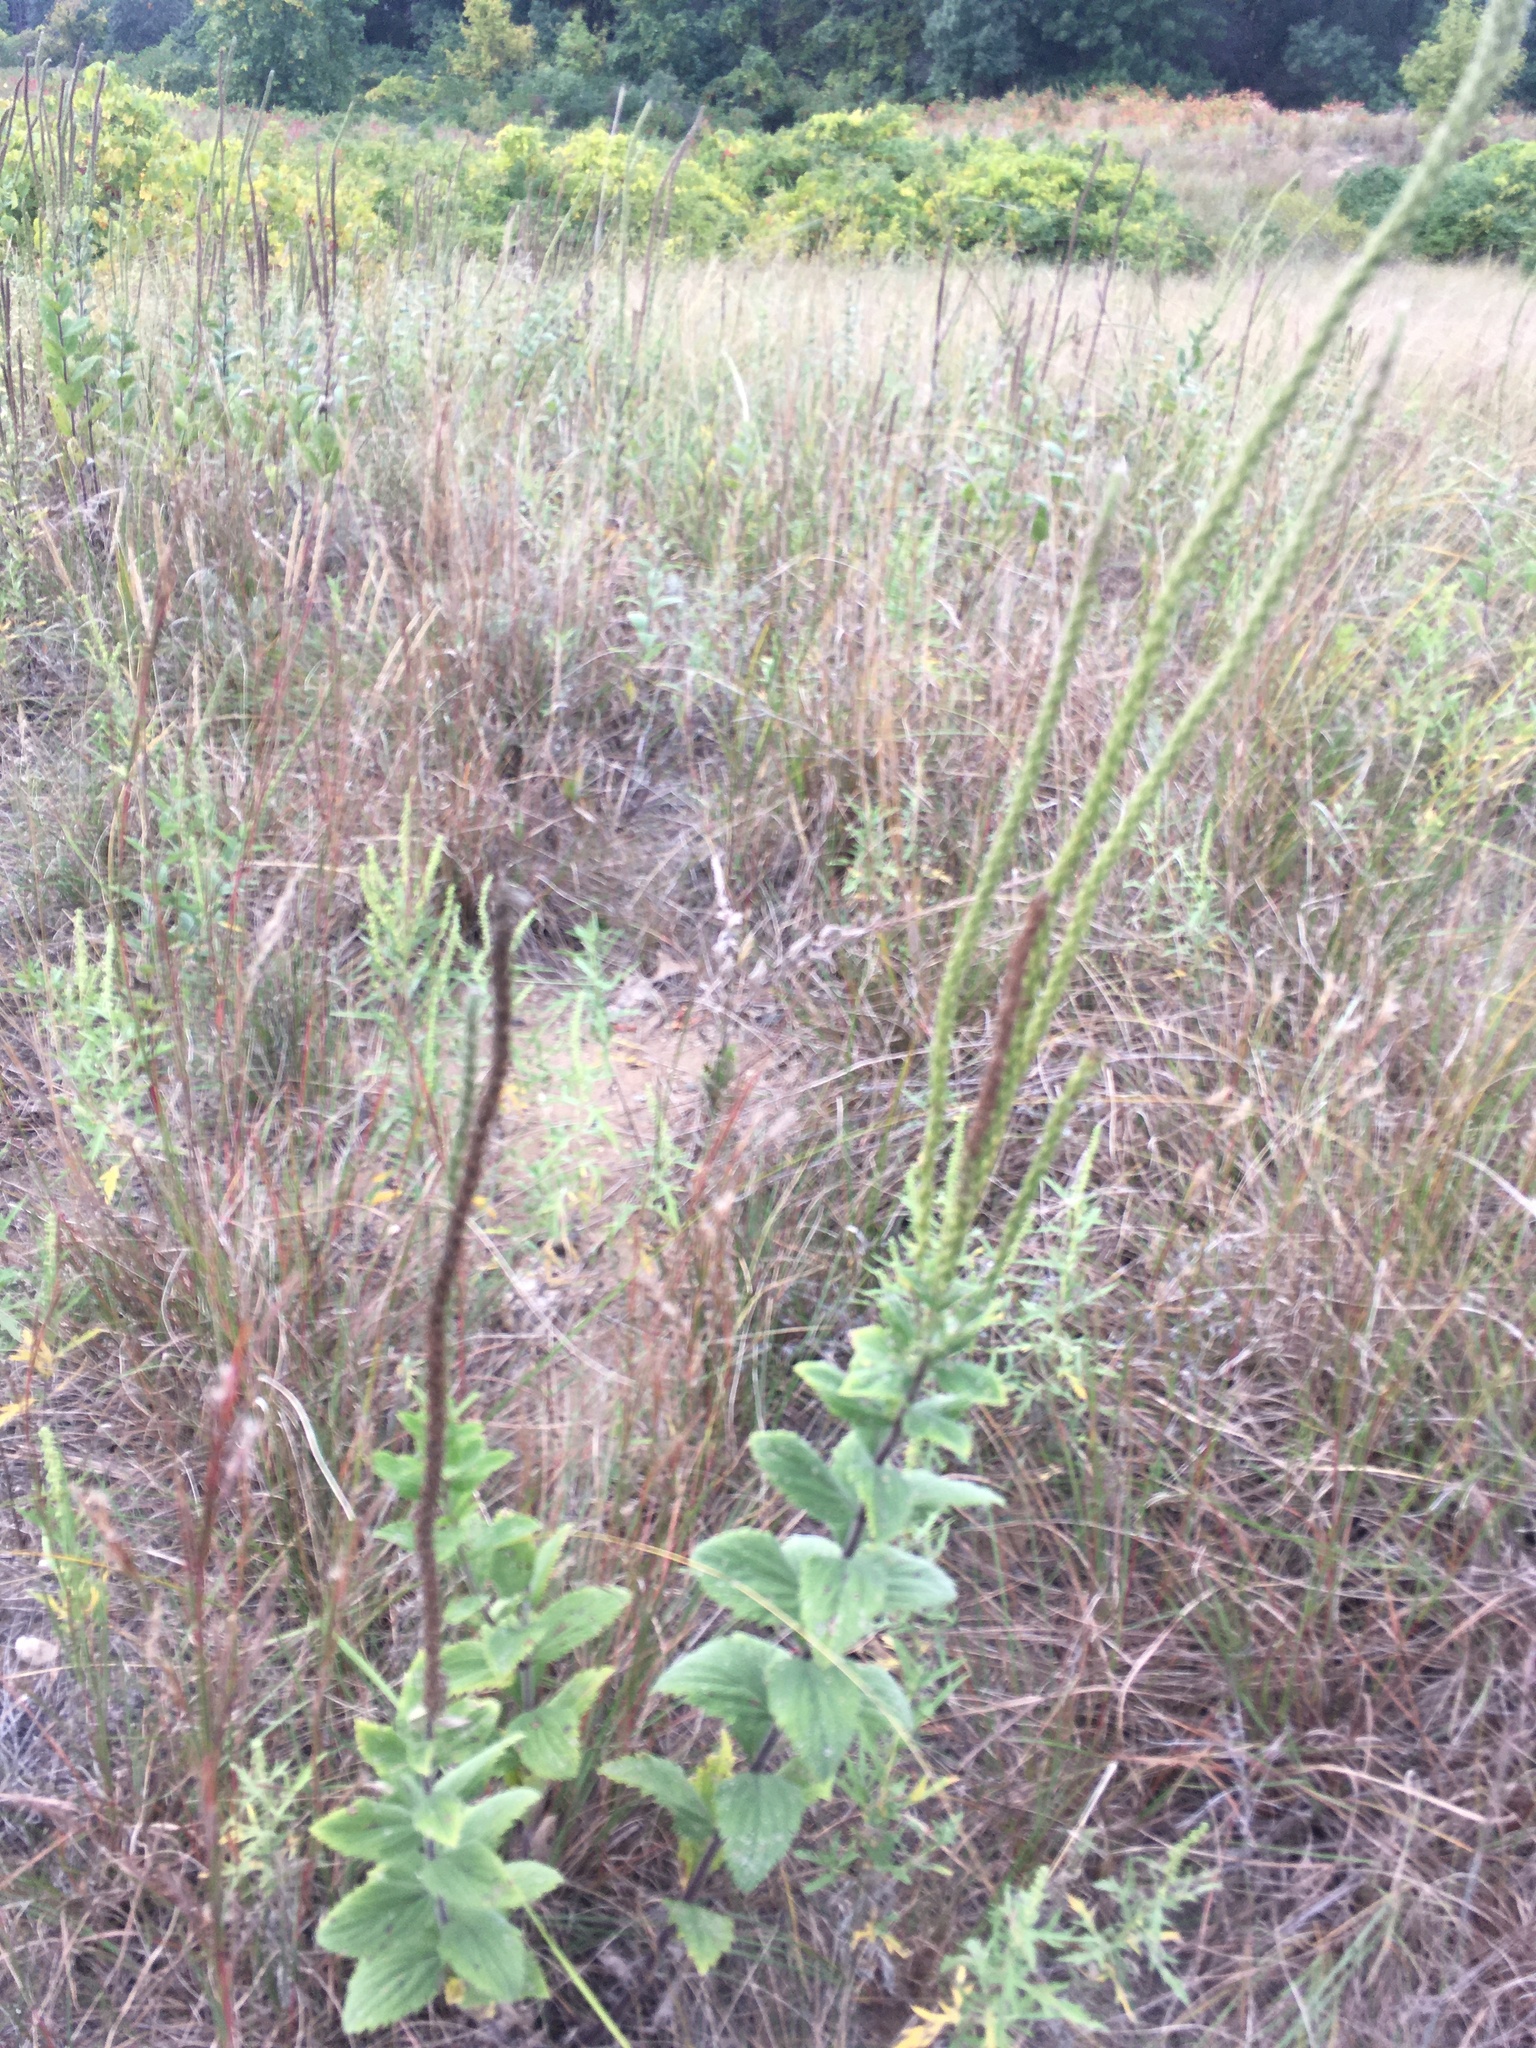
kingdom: Plantae
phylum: Tracheophyta
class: Magnoliopsida
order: Lamiales
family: Verbenaceae
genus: Verbena
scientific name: Verbena stricta
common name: Hoary vervain
